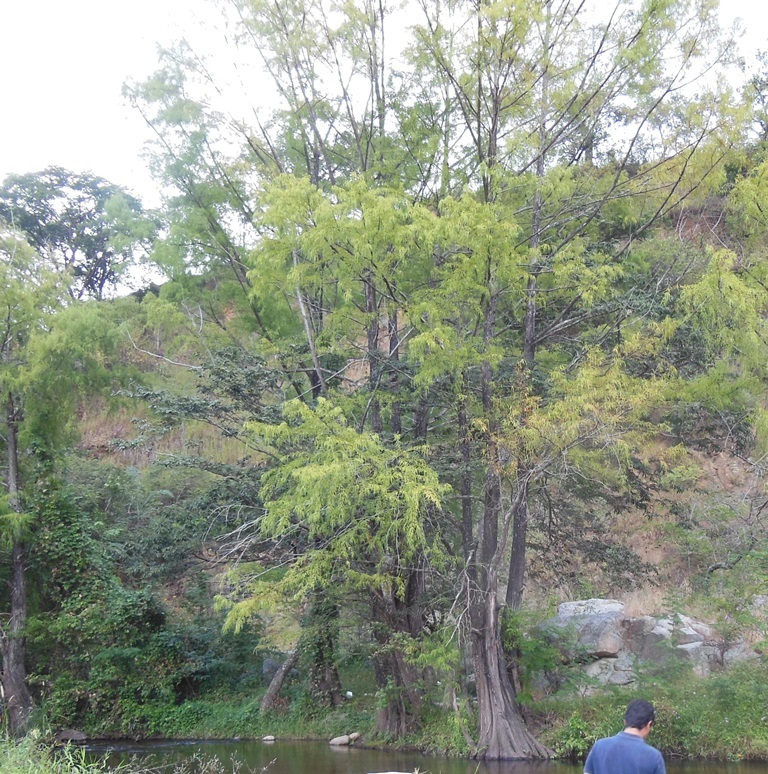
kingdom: Plantae
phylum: Tracheophyta
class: Pinopsida
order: Pinales
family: Cupressaceae
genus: Taxodium
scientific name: Taxodium mucronatum
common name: Montezume bald cypress
